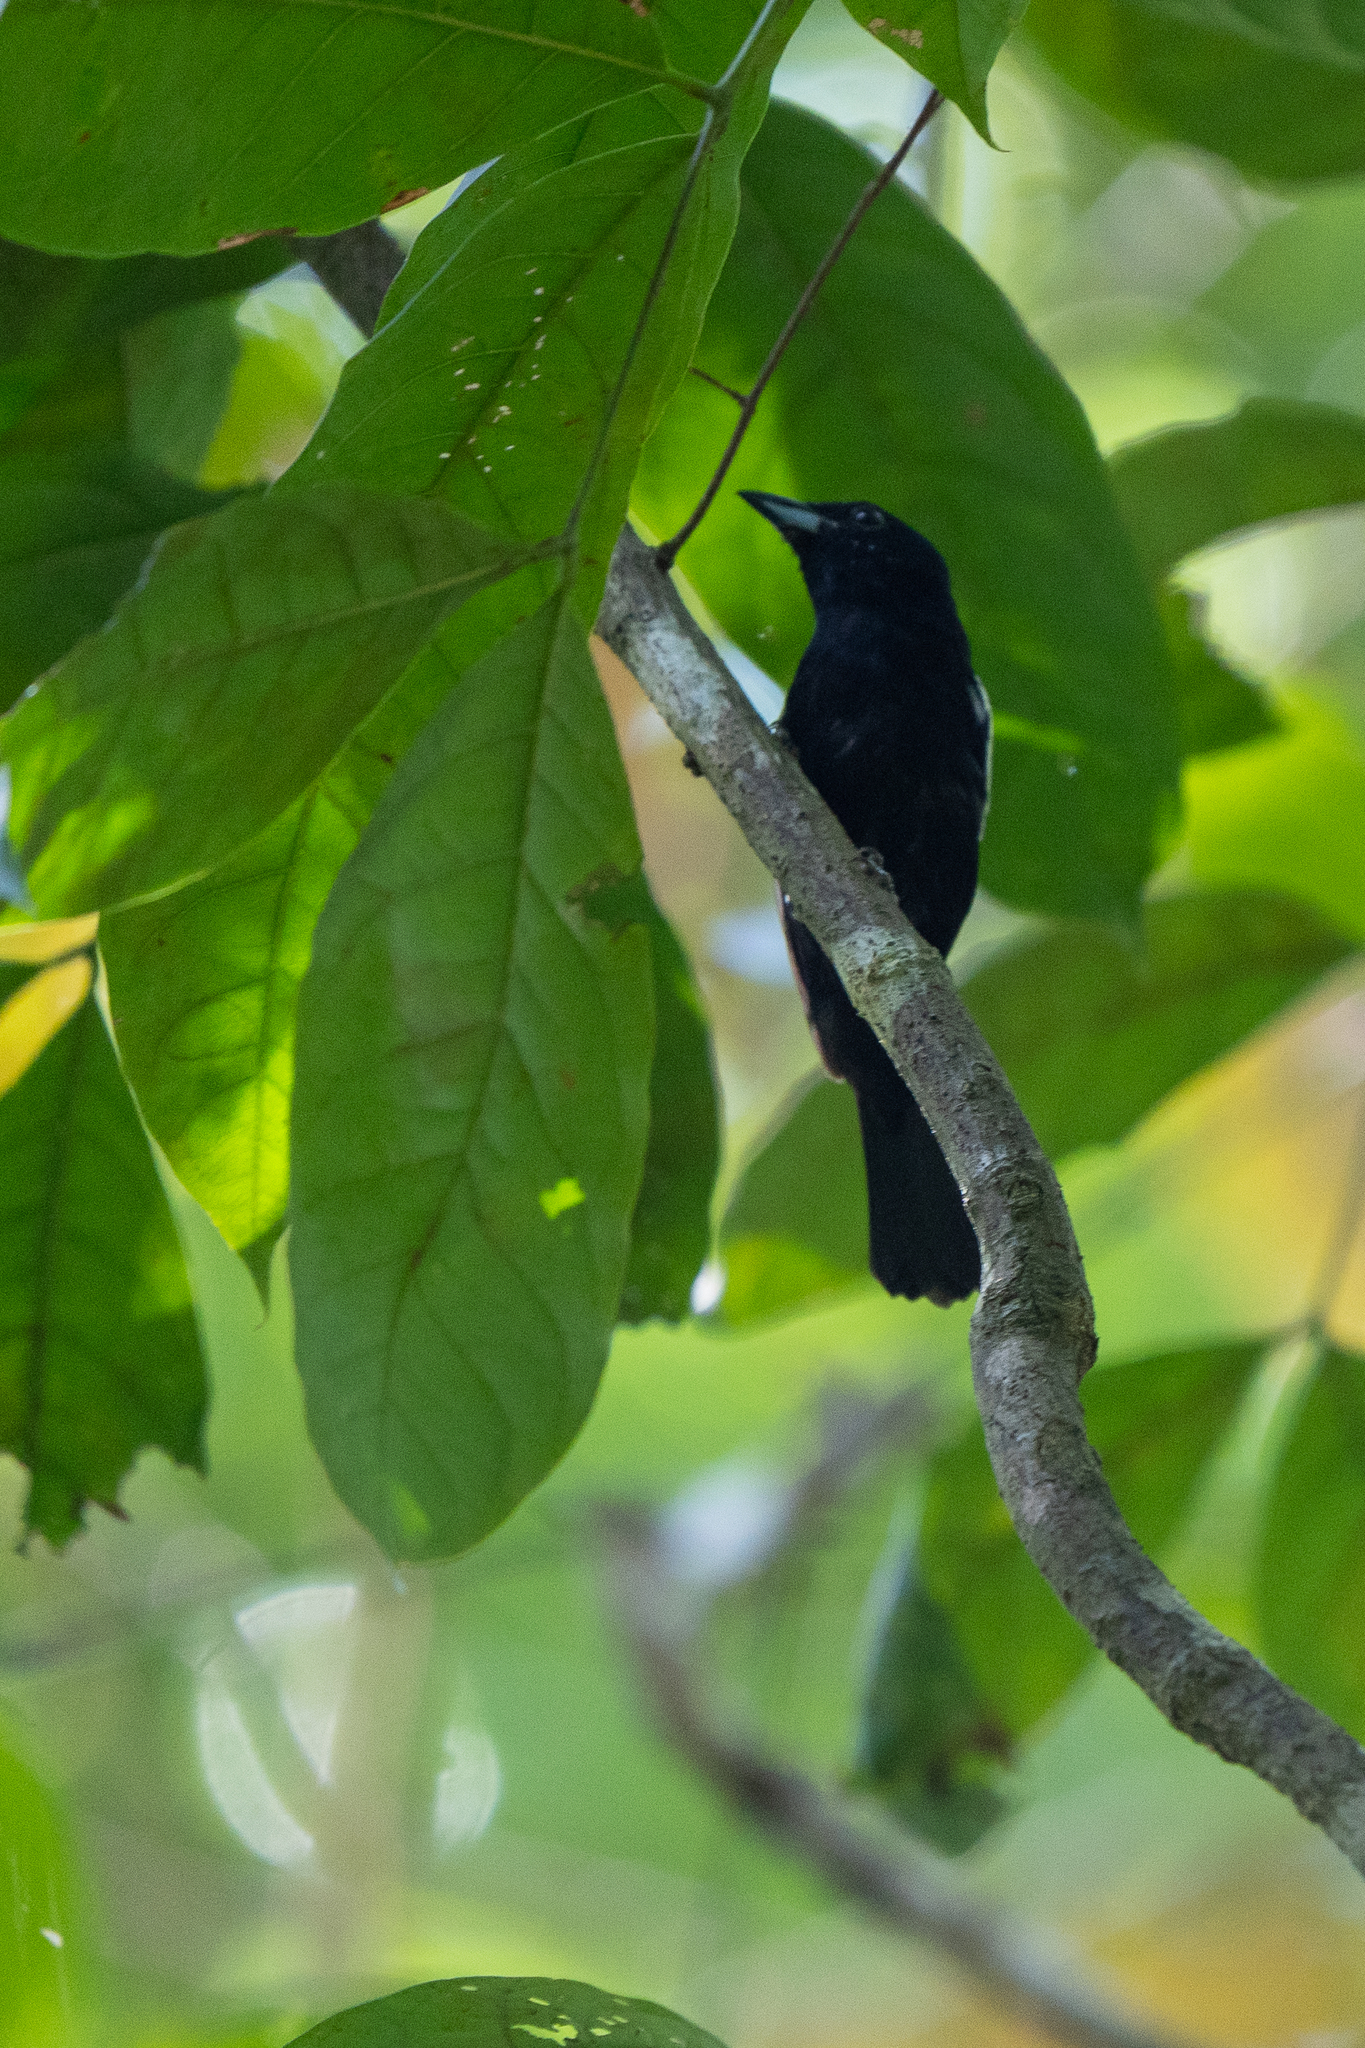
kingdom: Animalia
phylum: Chordata
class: Aves
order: Passeriformes
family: Thraupidae
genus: Loriotus
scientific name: Loriotus luctuosus
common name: White-shouldered tanager
